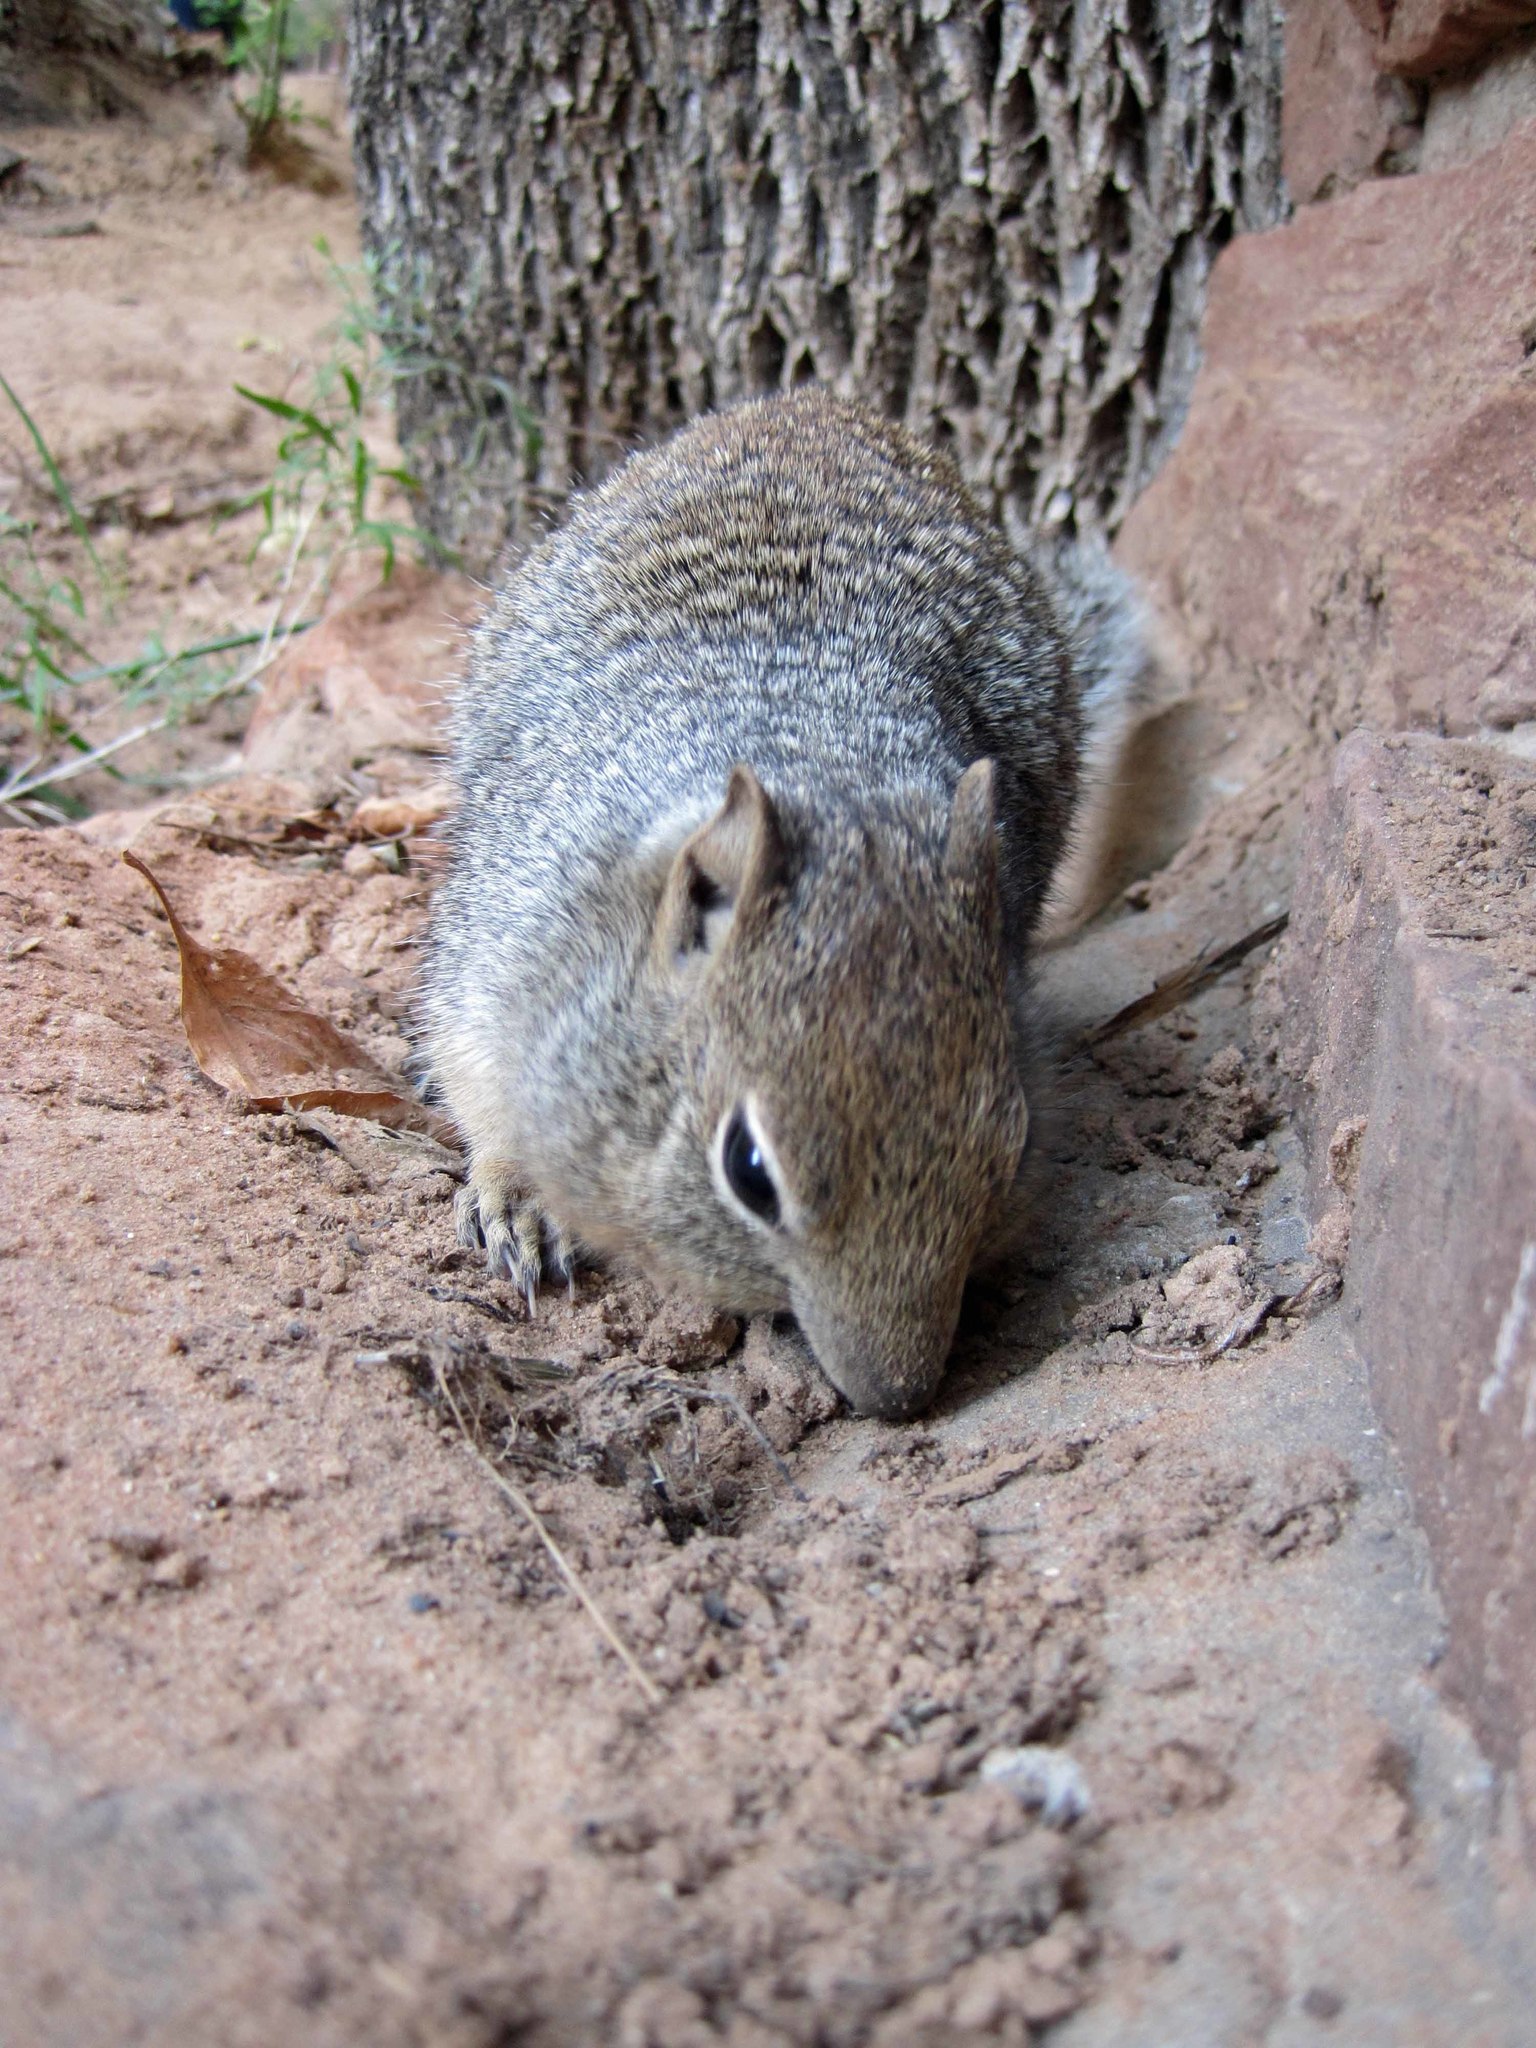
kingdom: Animalia
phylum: Chordata
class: Mammalia
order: Rodentia
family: Sciuridae
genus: Otospermophilus
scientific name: Otospermophilus variegatus
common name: Rock squirrel
